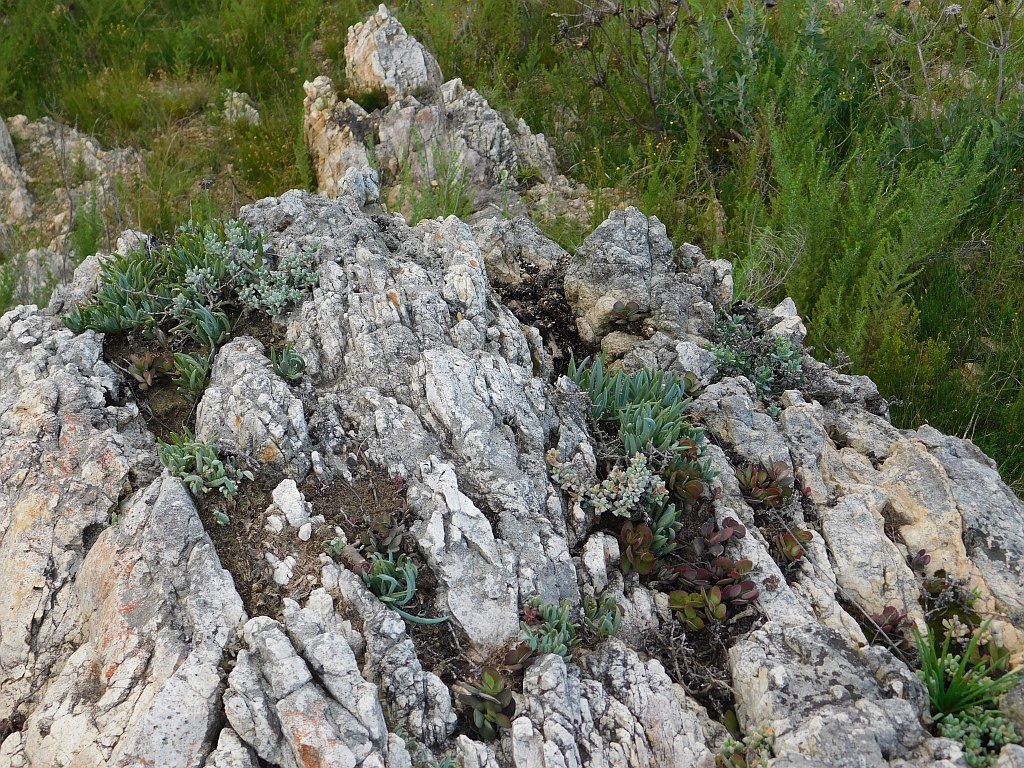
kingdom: Plantae
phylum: Tracheophyta
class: Magnoliopsida
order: Asterales
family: Asteraceae
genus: Curio
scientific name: Curio talinoides
